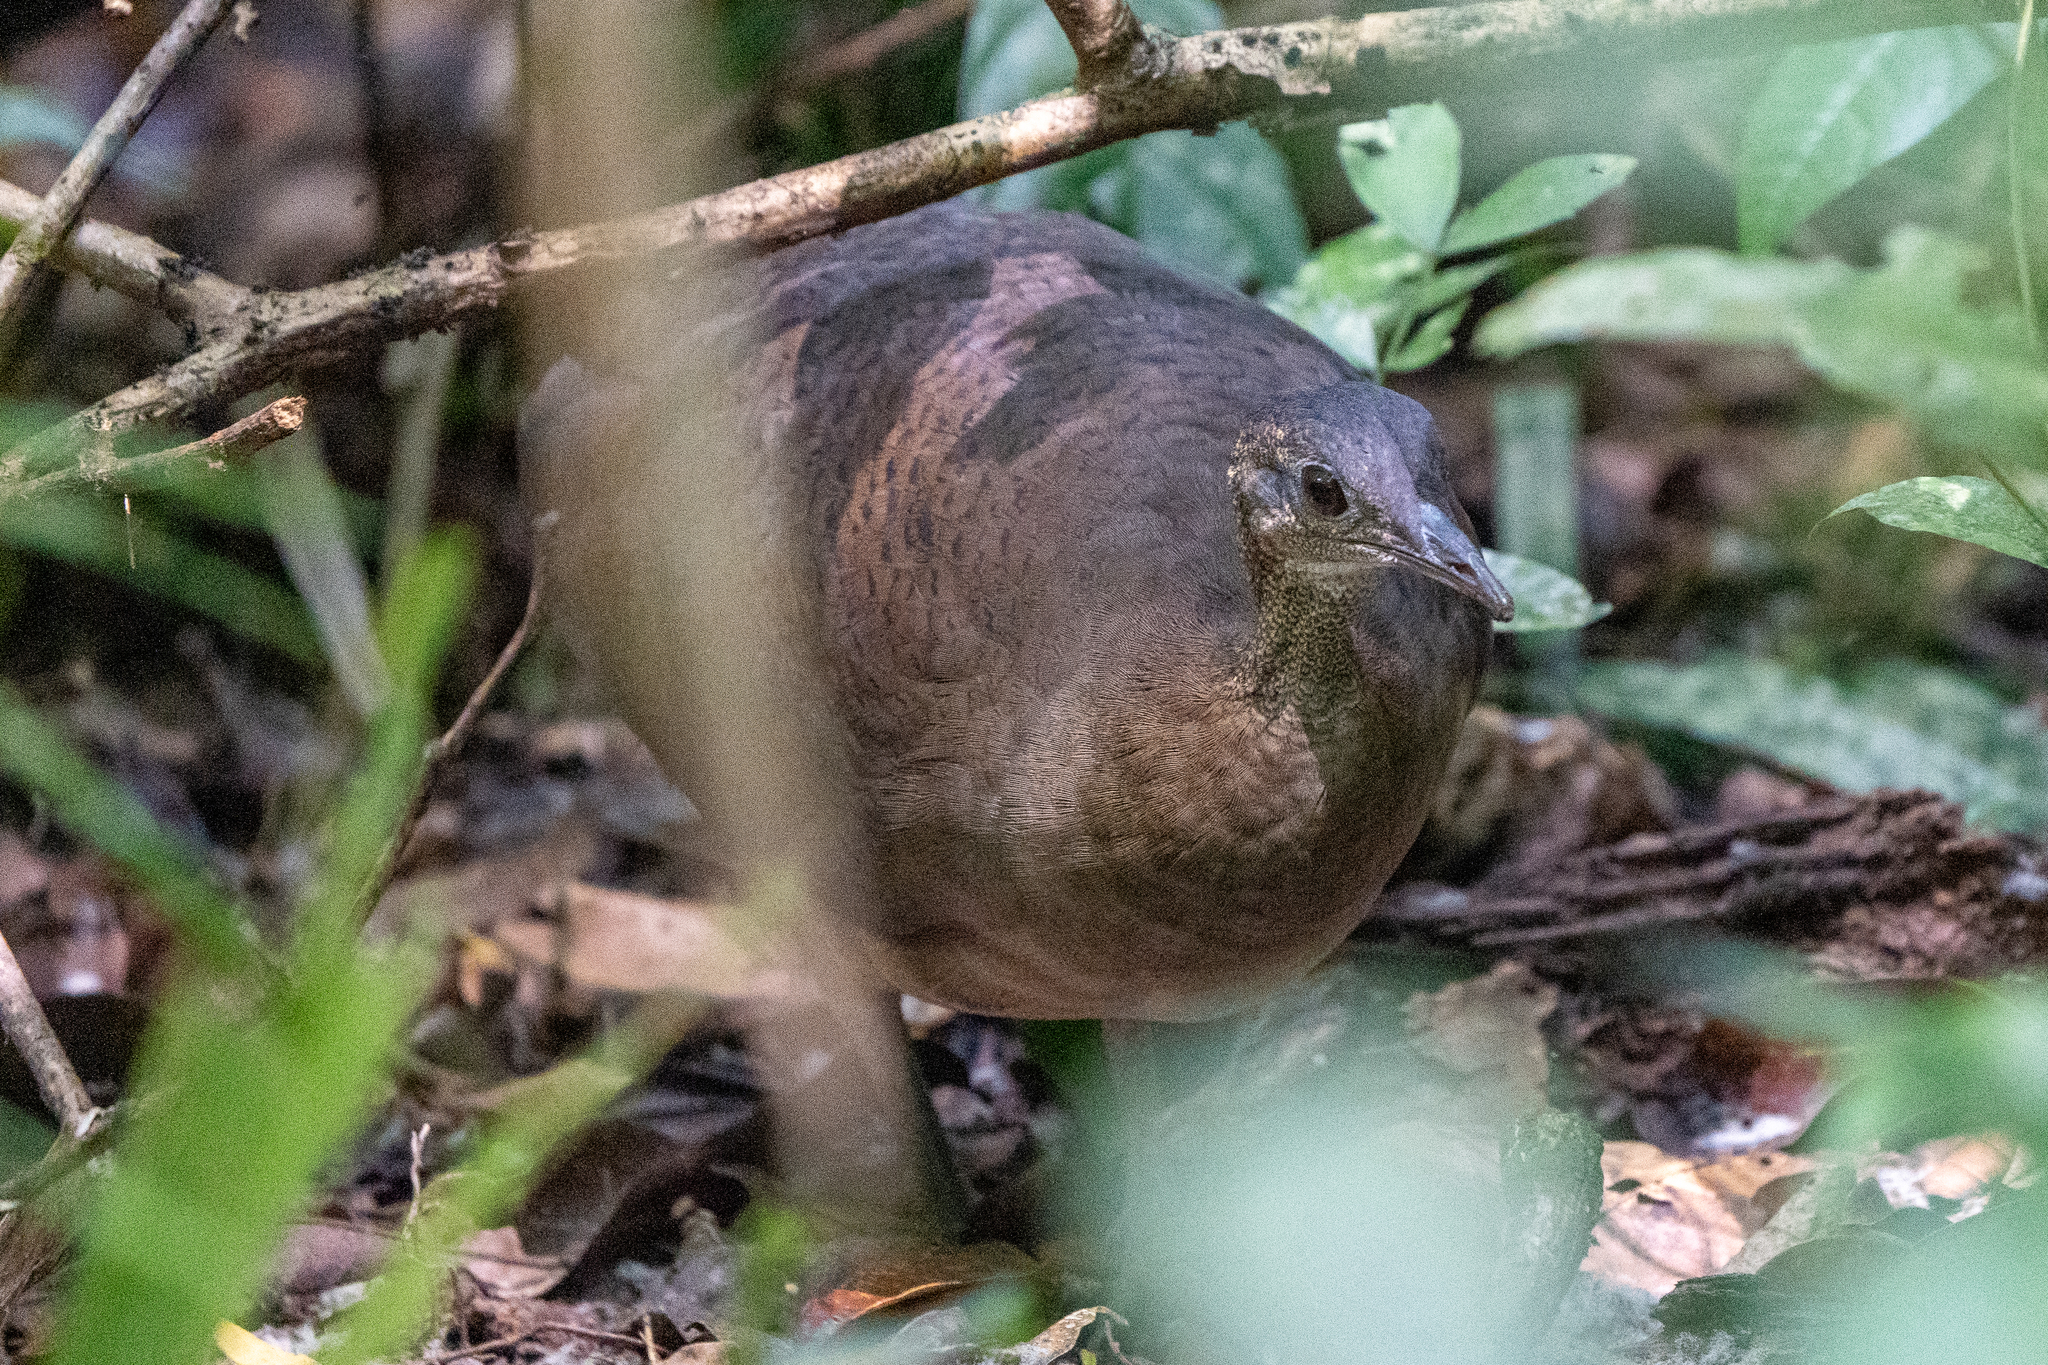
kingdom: Animalia
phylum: Chordata
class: Aves
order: Tinamiformes
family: Tinamidae
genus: Tinamus
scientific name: Tinamus major
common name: Great tinamou
